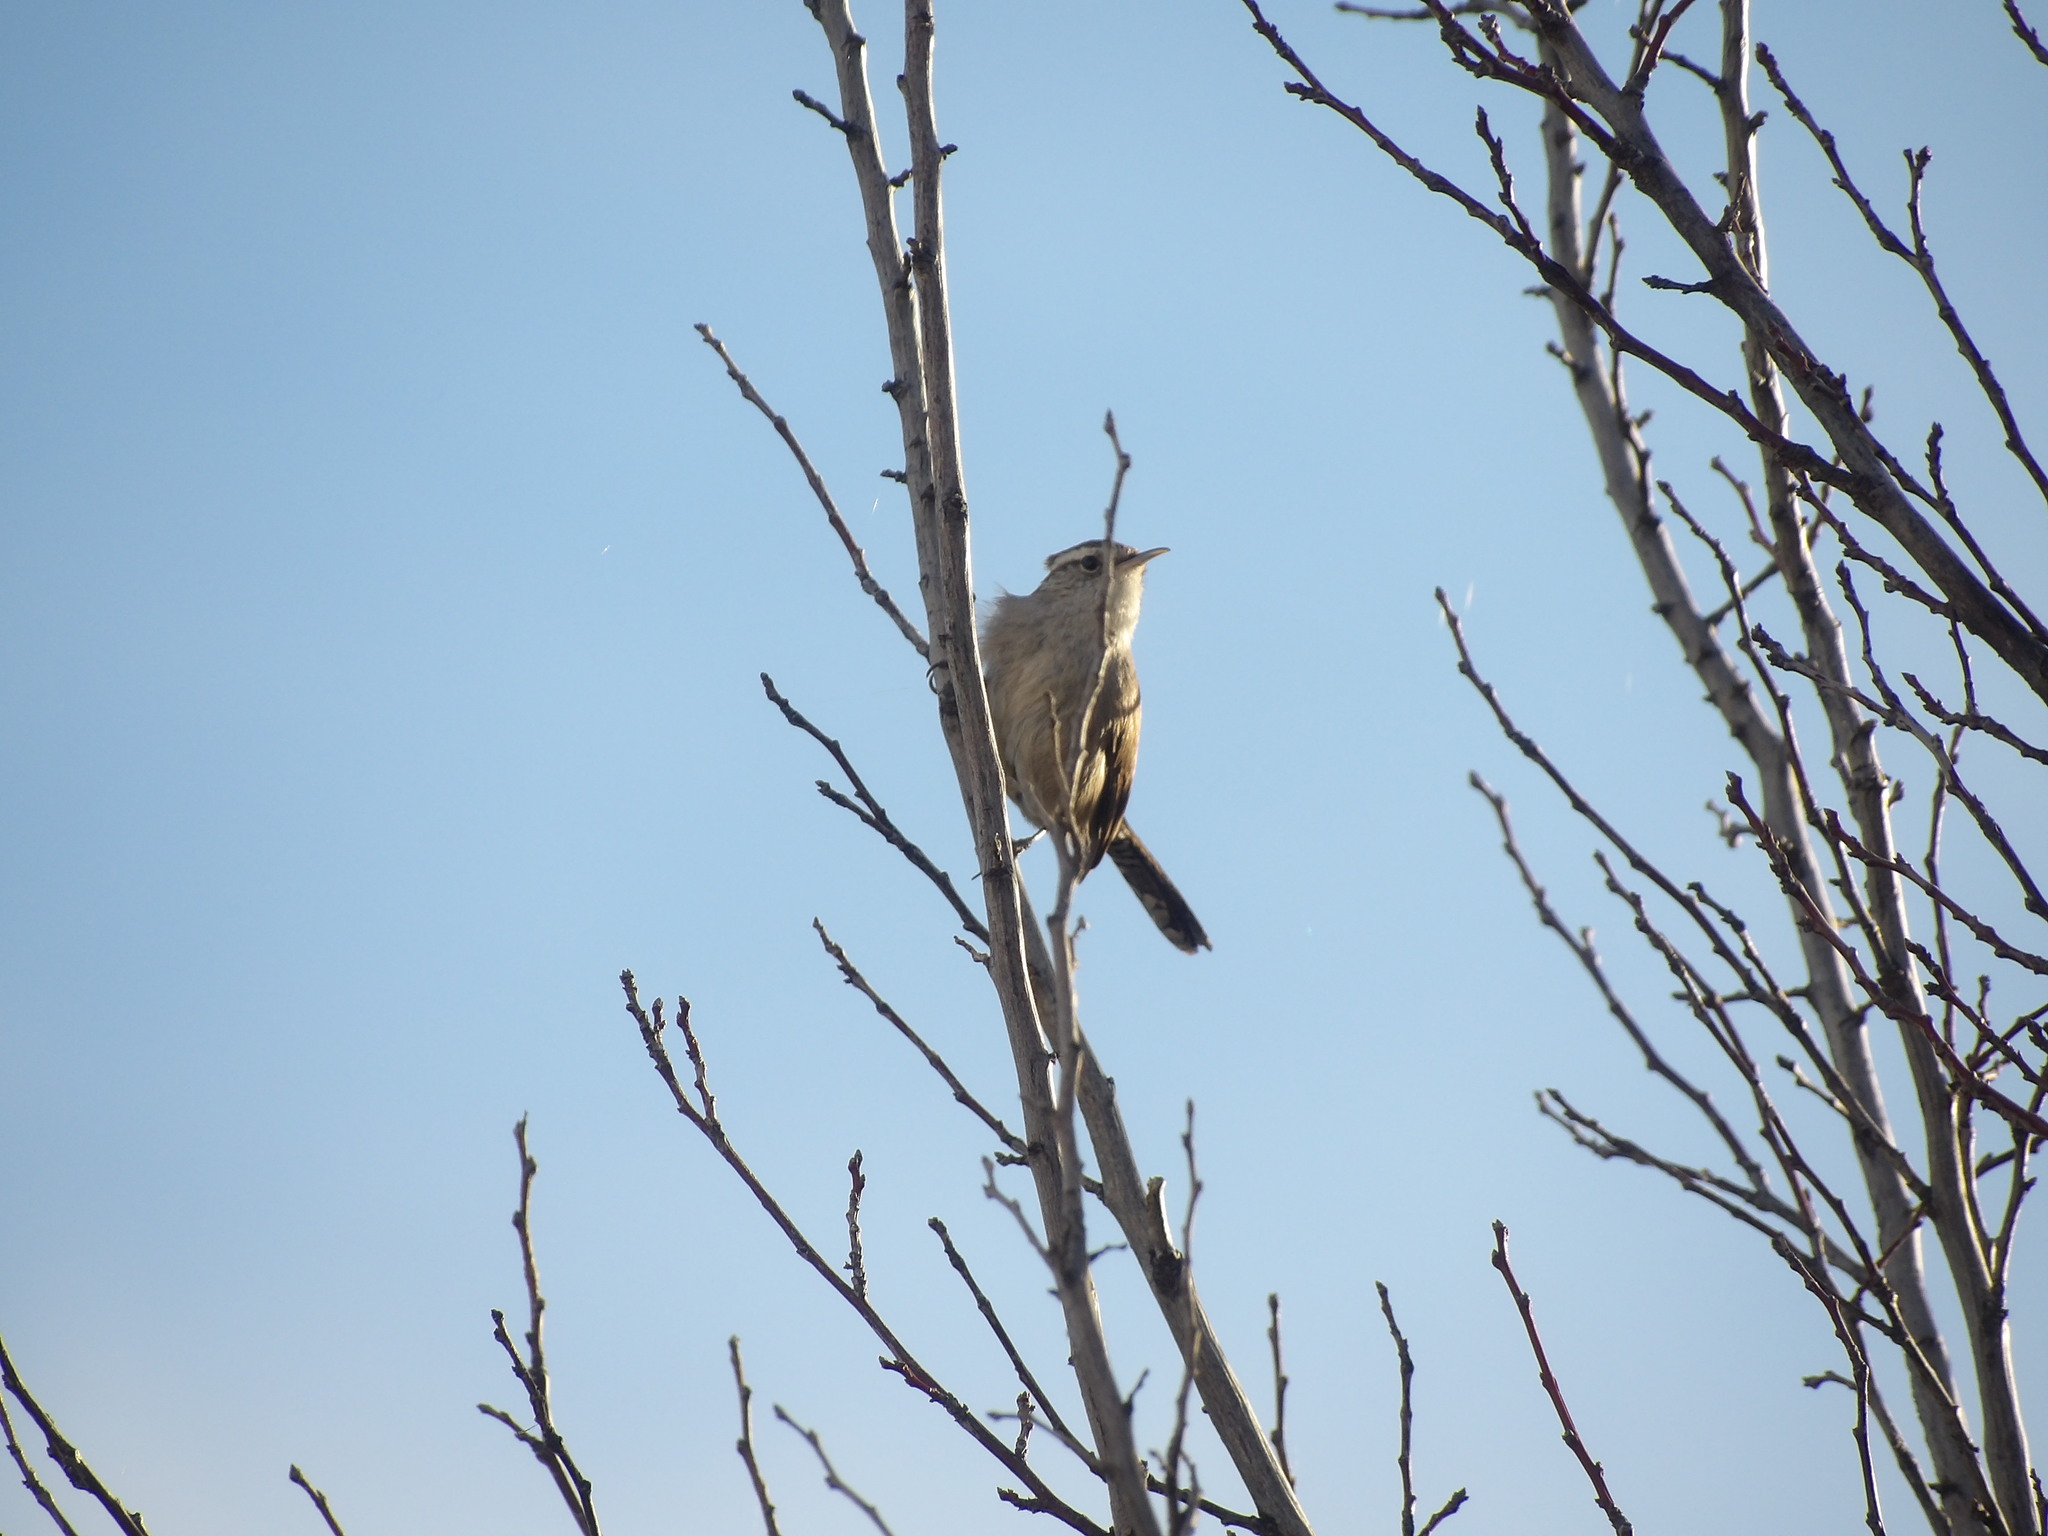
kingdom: Animalia
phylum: Chordata
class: Aves
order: Passeriformes
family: Troglodytidae
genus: Thryomanes
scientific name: Thryomanes bewickii
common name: Bewick's wren
